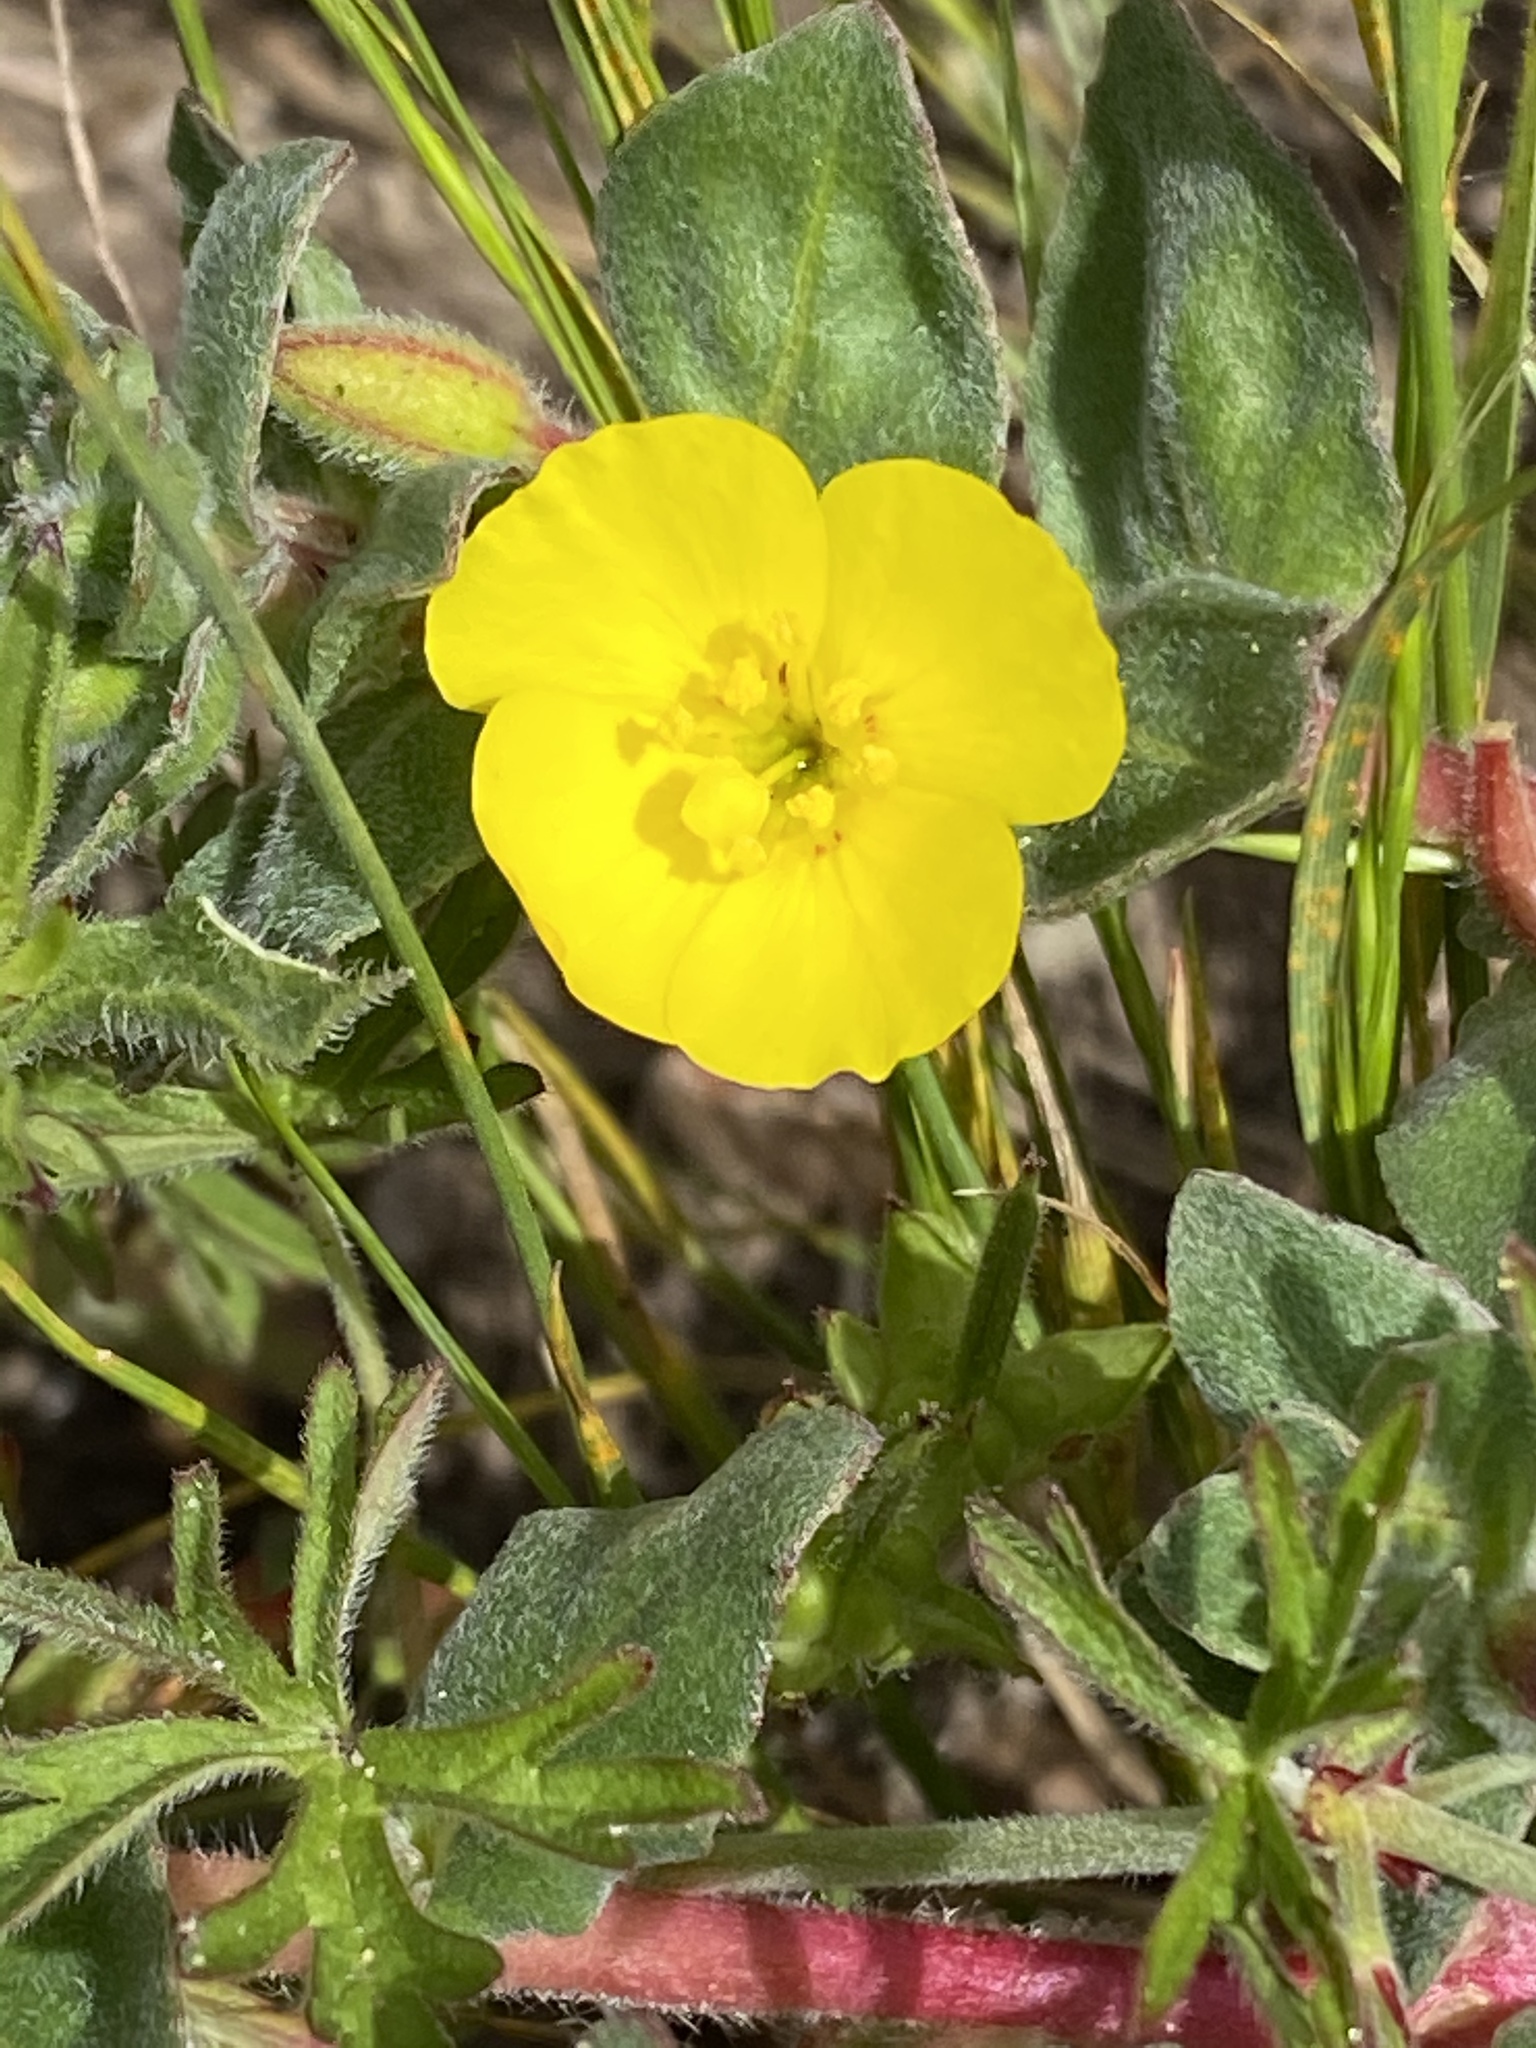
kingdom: Plantae
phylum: Tracheophyta
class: Magnoliopsida
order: Myrtales
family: Onagraceae
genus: Camissoniopsis
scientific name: Camissoniopsis cheiranthifolia
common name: Beach suncup
